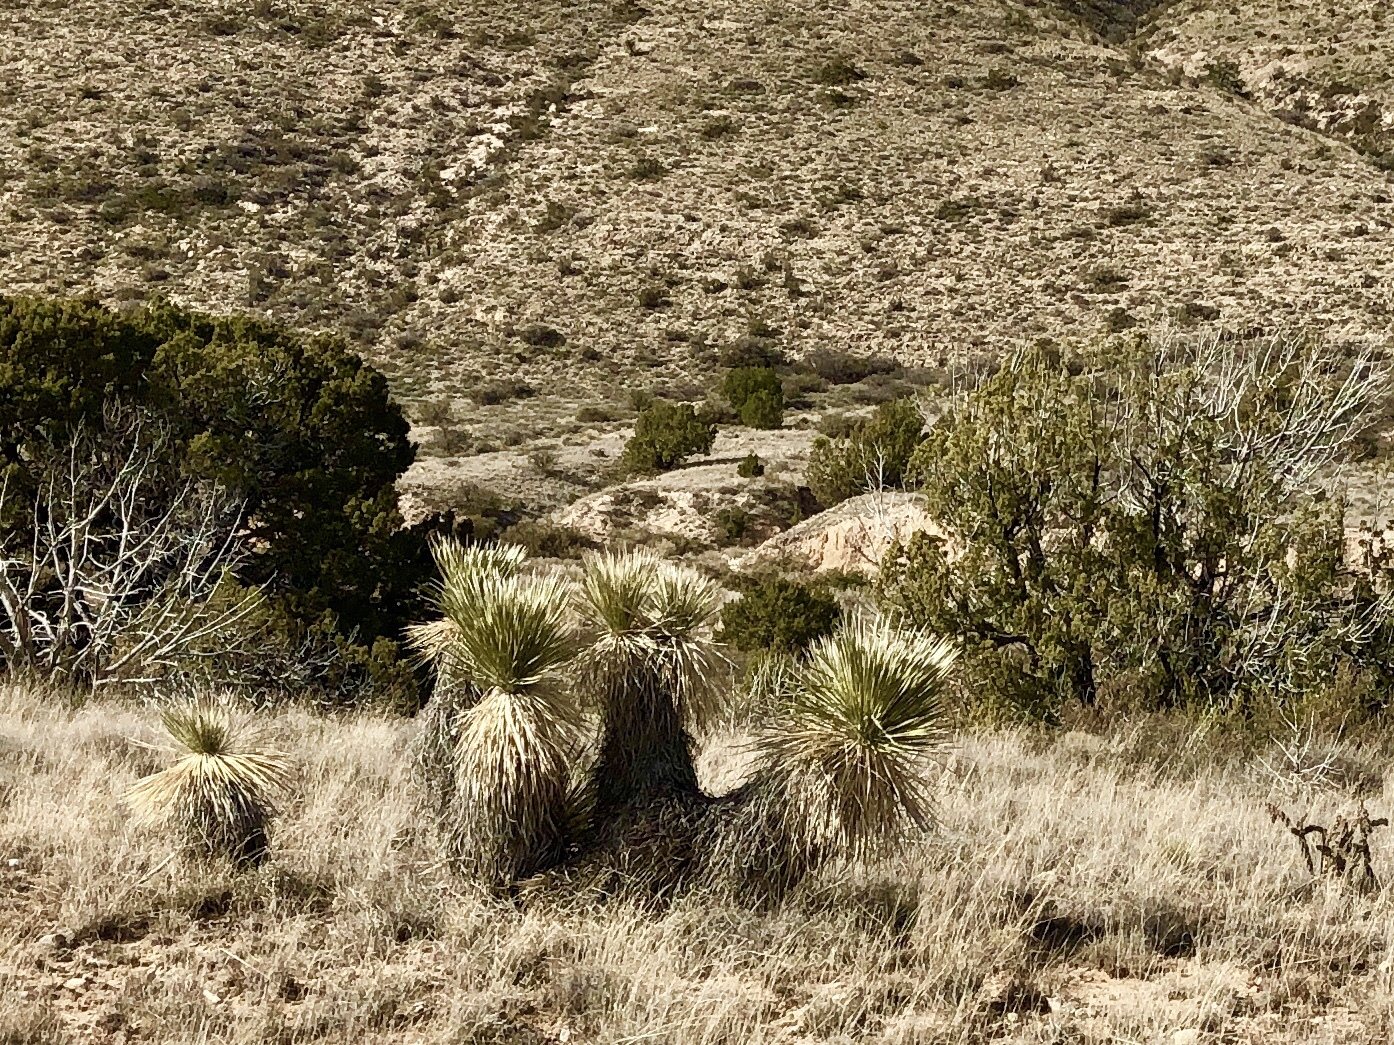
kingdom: Plantae
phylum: Tracheophyta
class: Liliopsida
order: Asparagales
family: Asparagaceae
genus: Yucca
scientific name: Yucca elata
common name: Palmella
